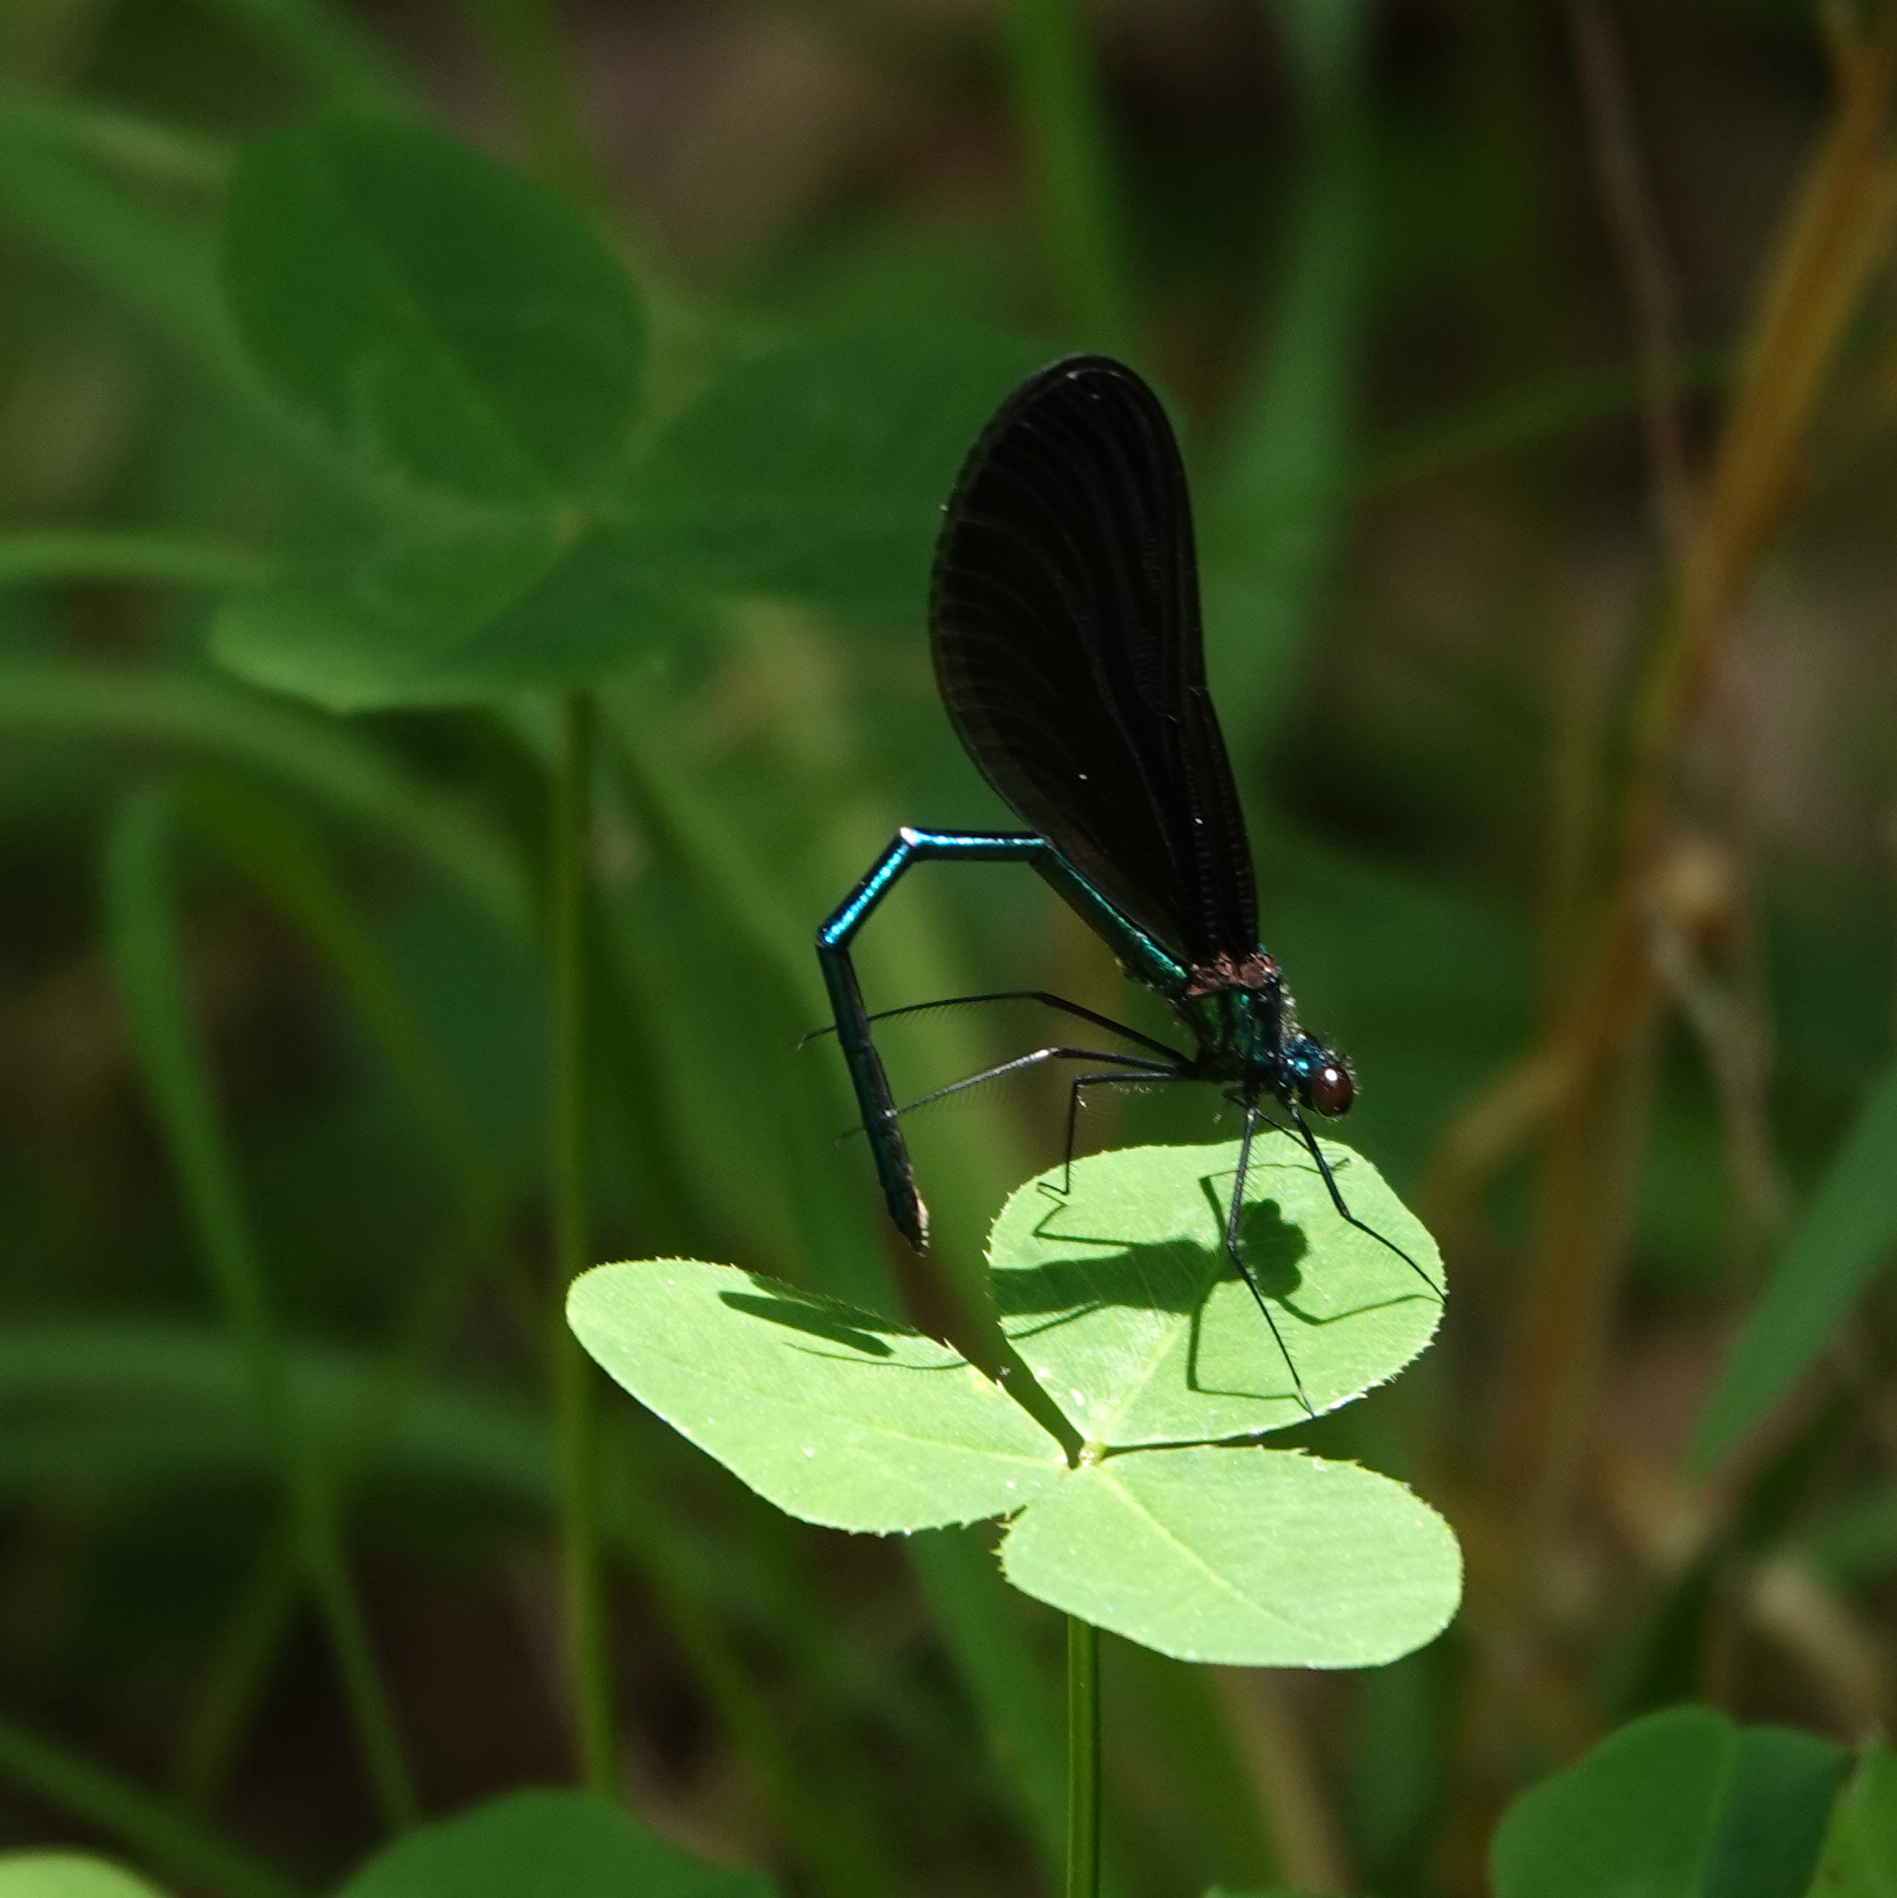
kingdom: Animalia
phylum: Arthropoda
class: Insecta
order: Odonata
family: Calopterygidae
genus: Calopteryx
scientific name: Calopteryx maculata
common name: Ebony jewelwing
